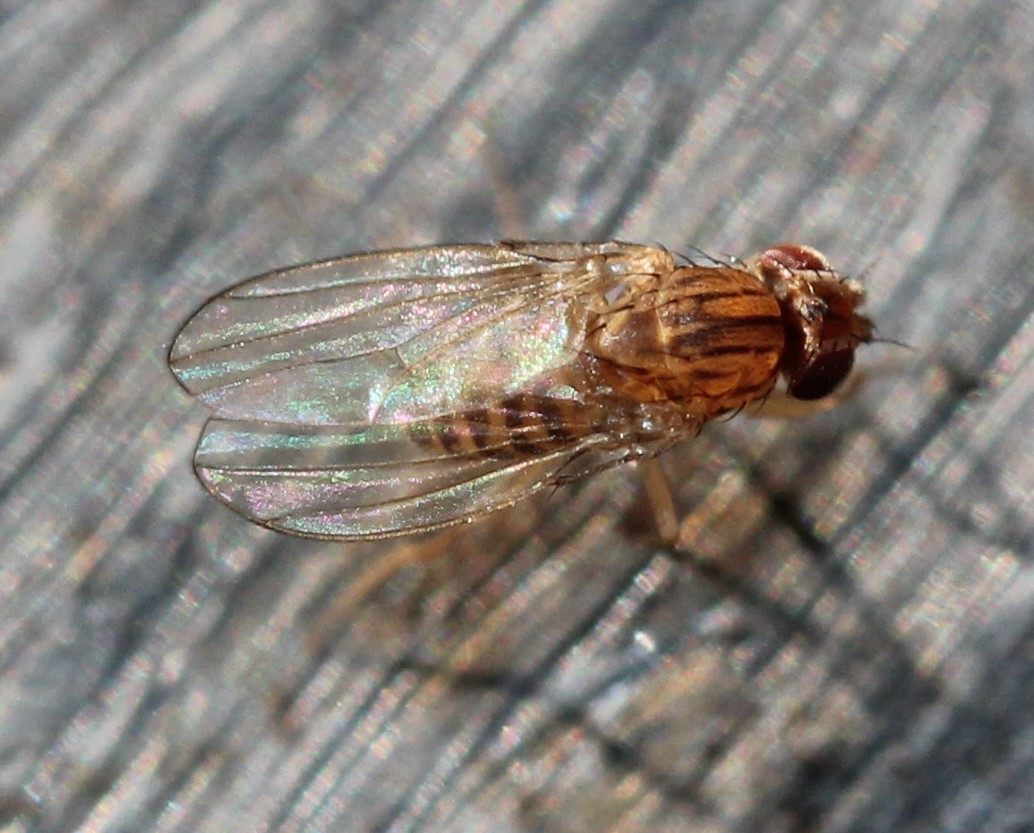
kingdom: Animalia
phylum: Arthropoda
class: Insecta
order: Diptera
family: Drosophilidae
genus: Drosophila
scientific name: Drosophila busckii
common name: Pomace fly
